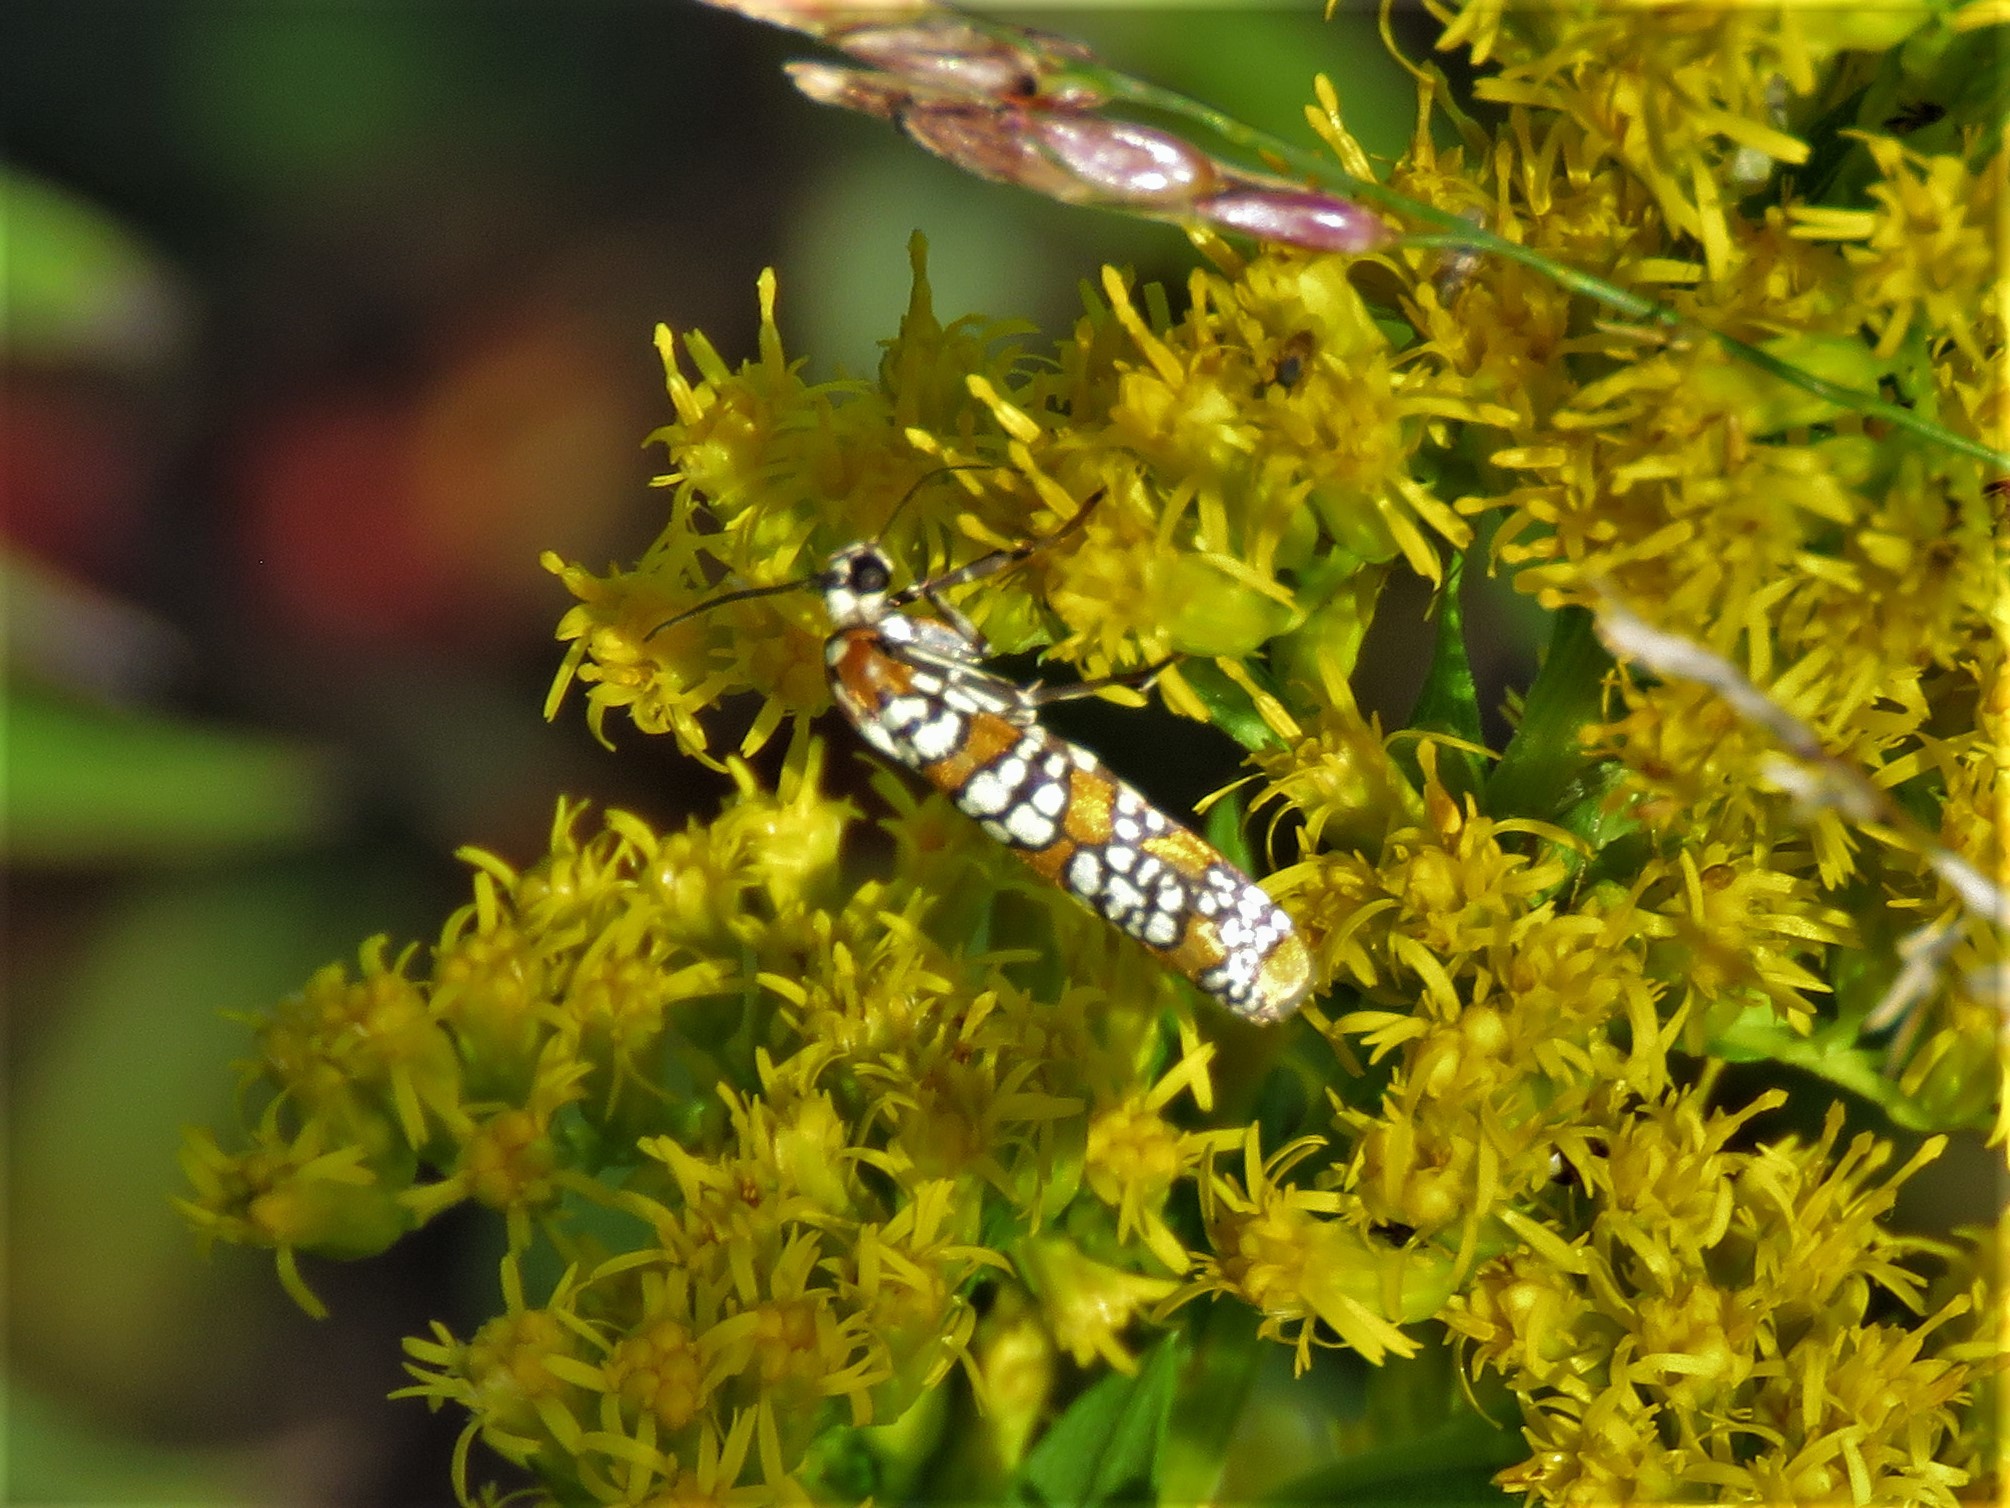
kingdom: Animalia
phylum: Arthropoda
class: Insecta
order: Lepidoptera
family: Attevidae
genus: Atteva
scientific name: Atteva punctella
